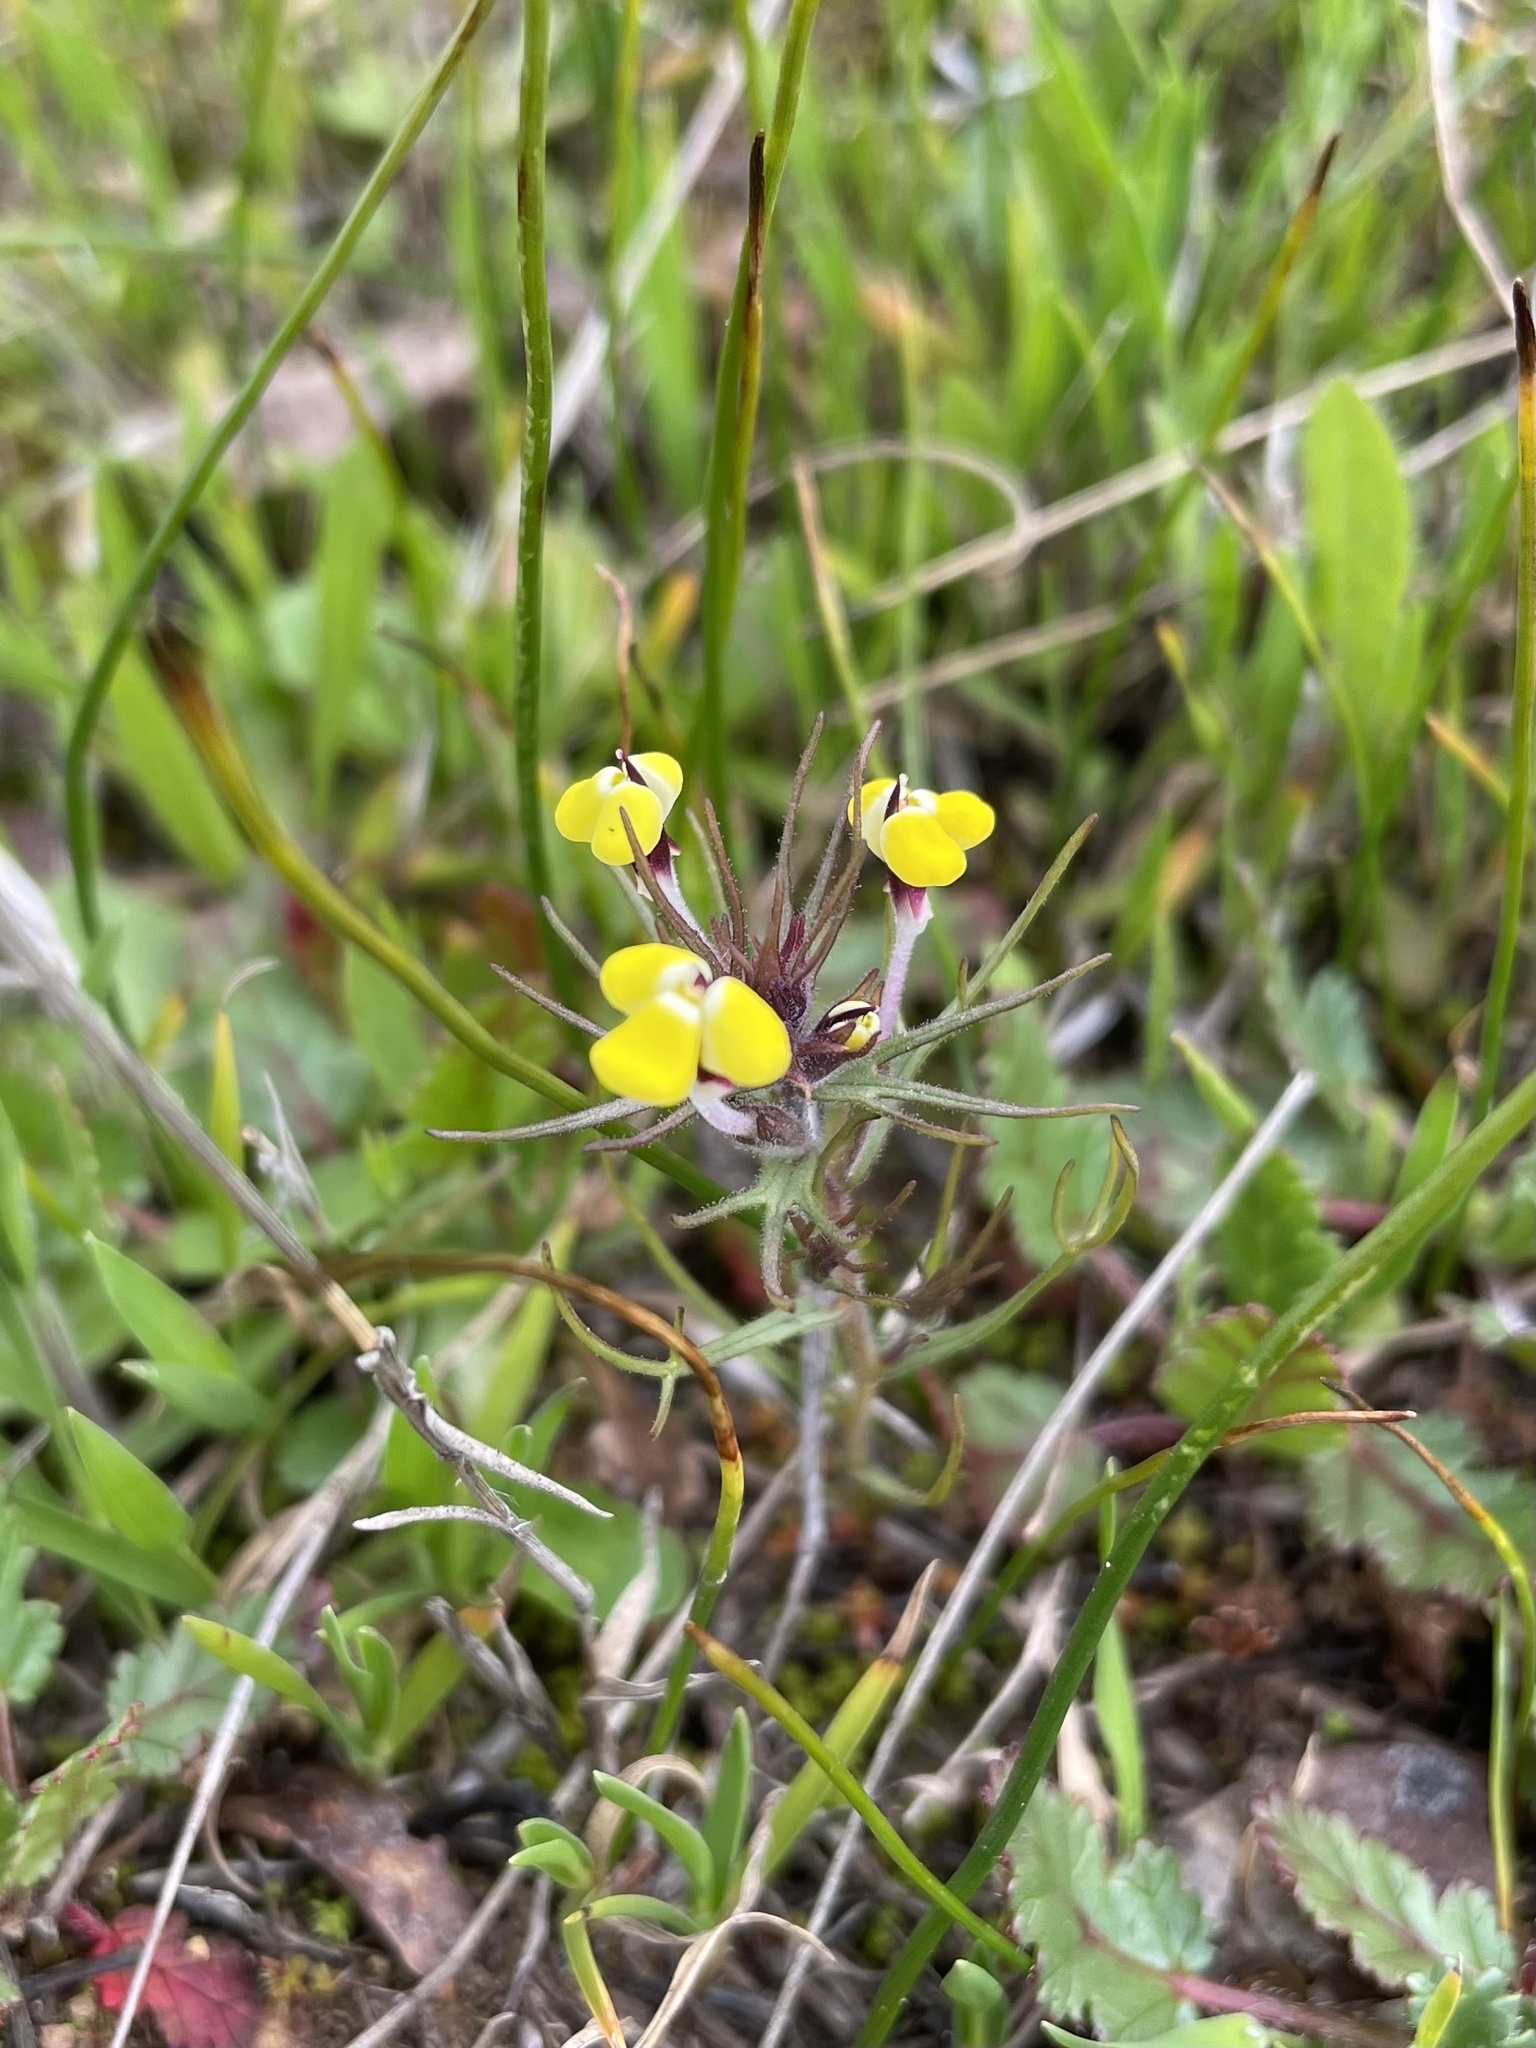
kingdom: Plantae
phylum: Tracheophyta
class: Magnoliopsida
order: Lamiales
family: Orobanchaceae
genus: Triphysaria
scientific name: Triphysaria eriantha
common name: Johnny-tuck
